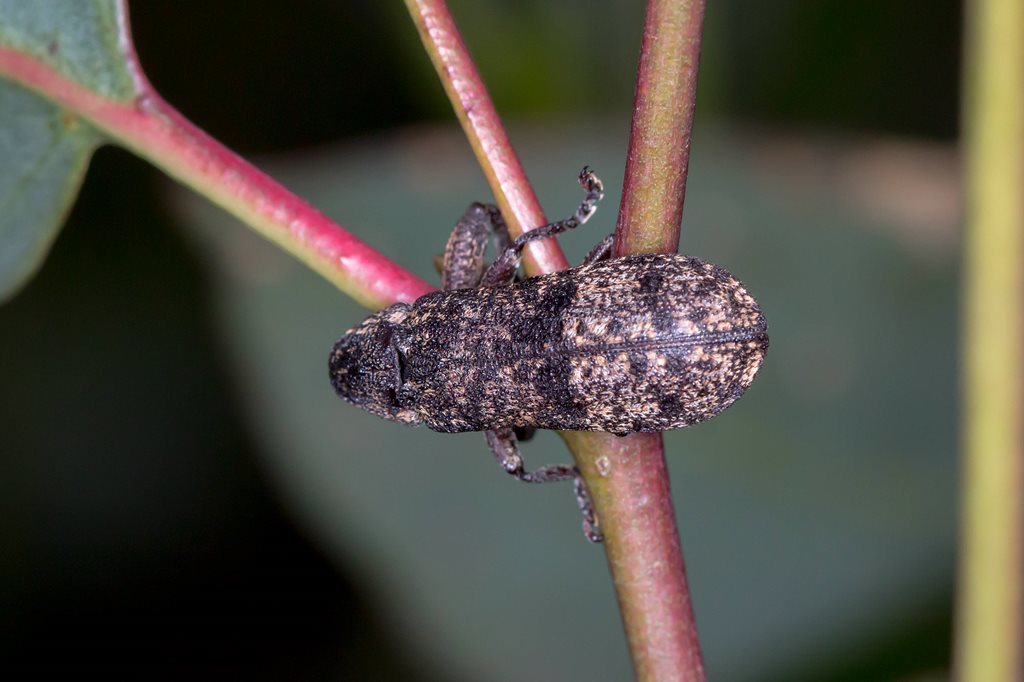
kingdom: Animalia
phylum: Arthropoda
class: Insecta
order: Coleoptera
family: Belidae
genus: Rhinotia
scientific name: Rhinotia dermestiventris
